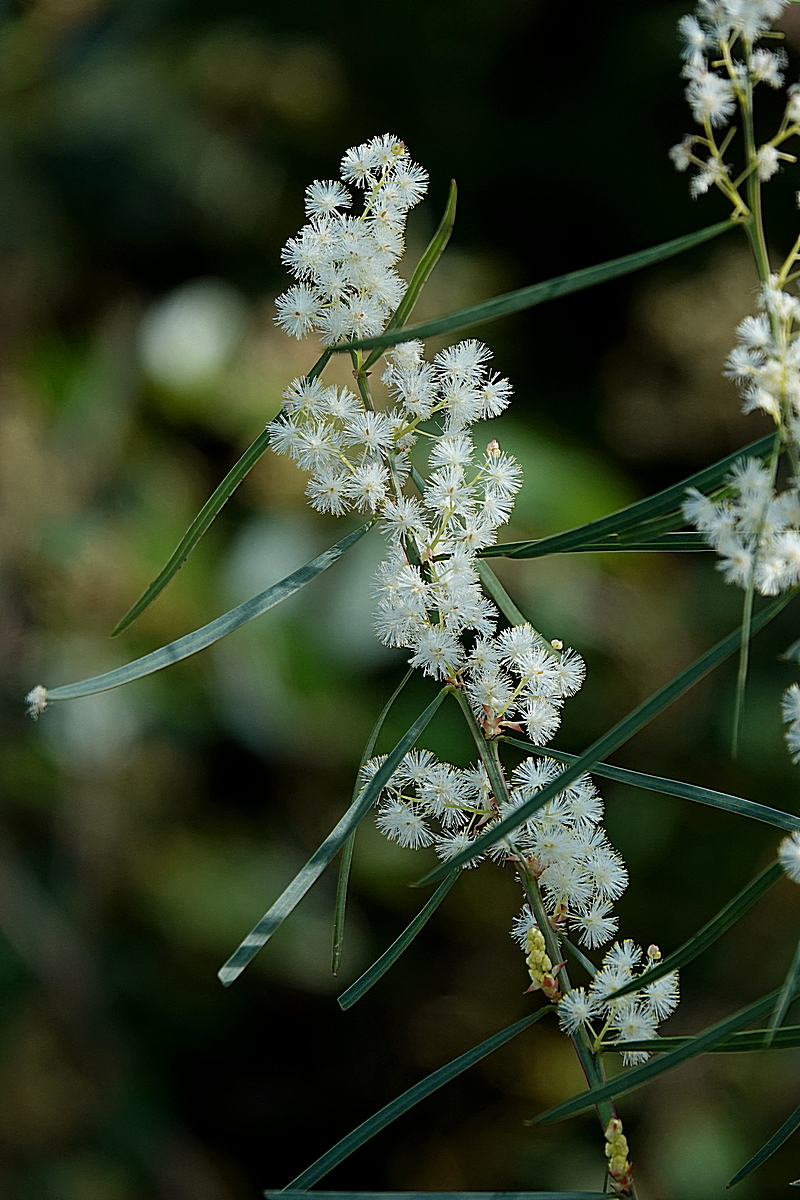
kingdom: Plantae
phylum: Tracheophyta
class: Magnoliopsida
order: Fabales
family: Fabaceae
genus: Acacia
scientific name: Acacia suaveolens
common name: Sweet acacia
